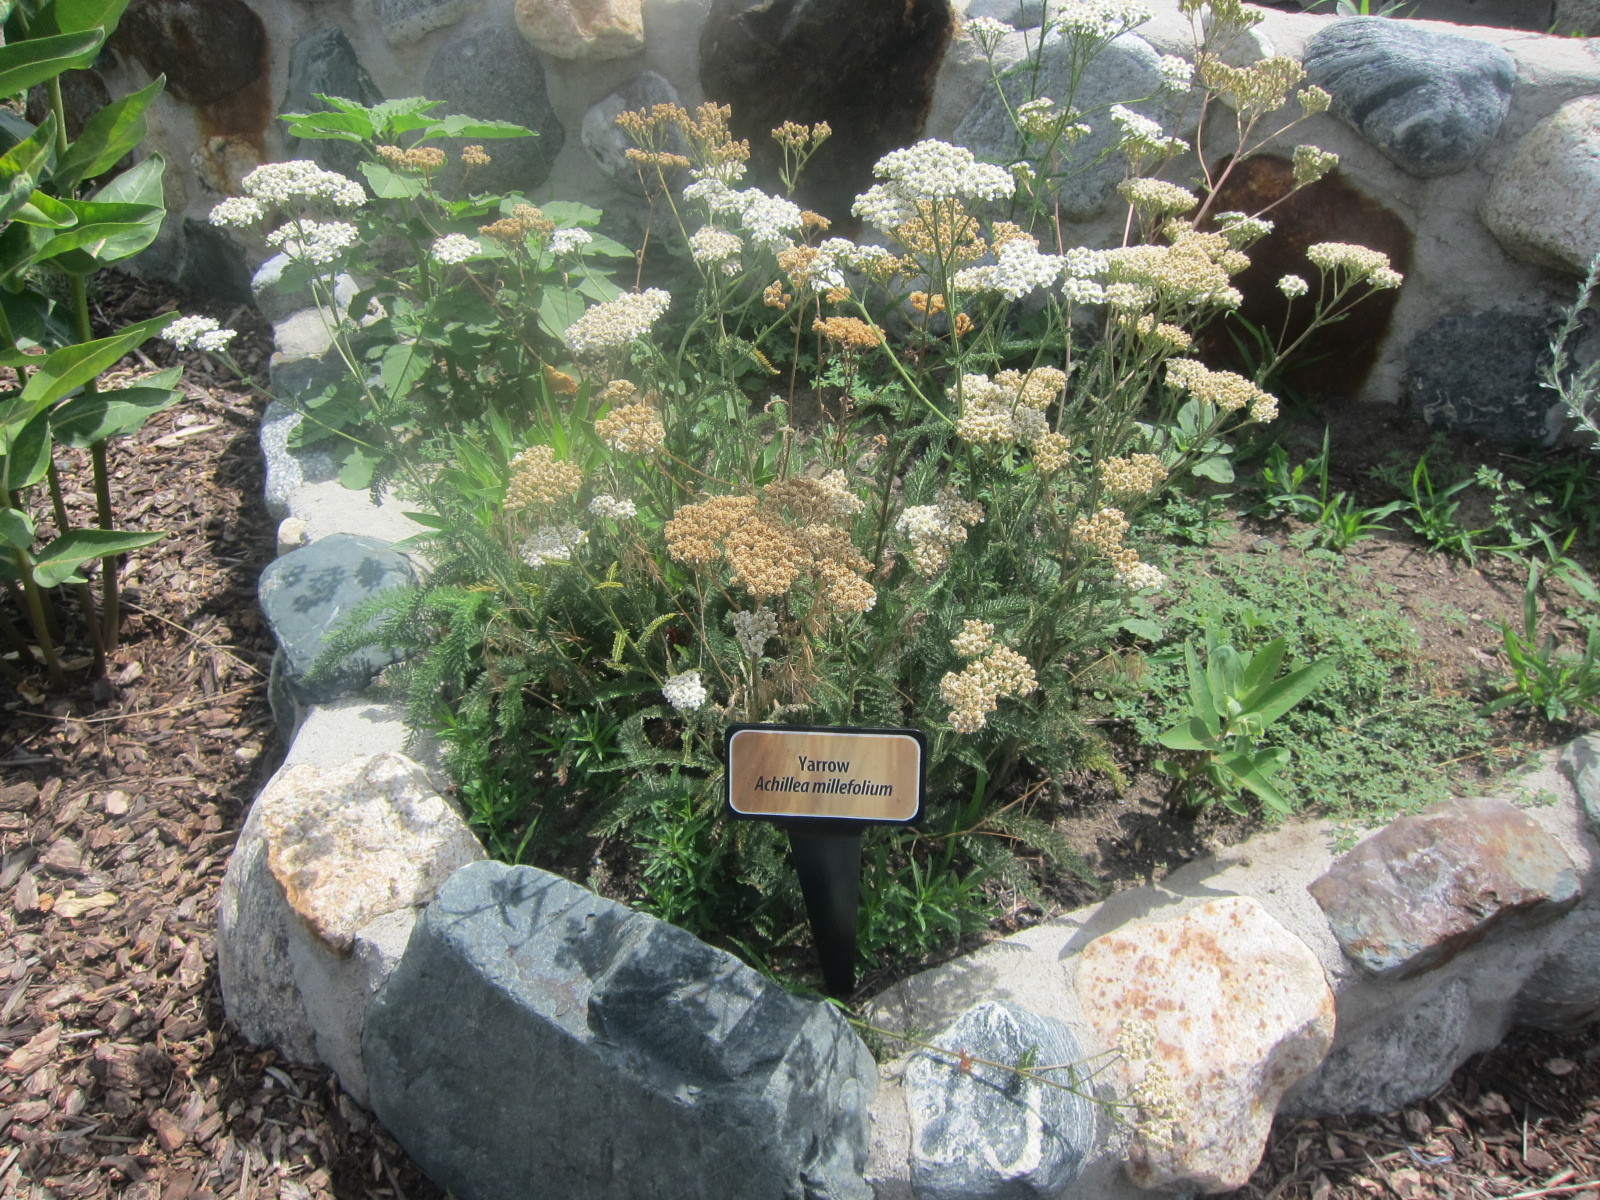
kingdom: Plantae
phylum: Tracheophyta
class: Magnoliopsida
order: Asterales
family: Asteraceae
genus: Achillea
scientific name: Achillea millefolium
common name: Yarrow
